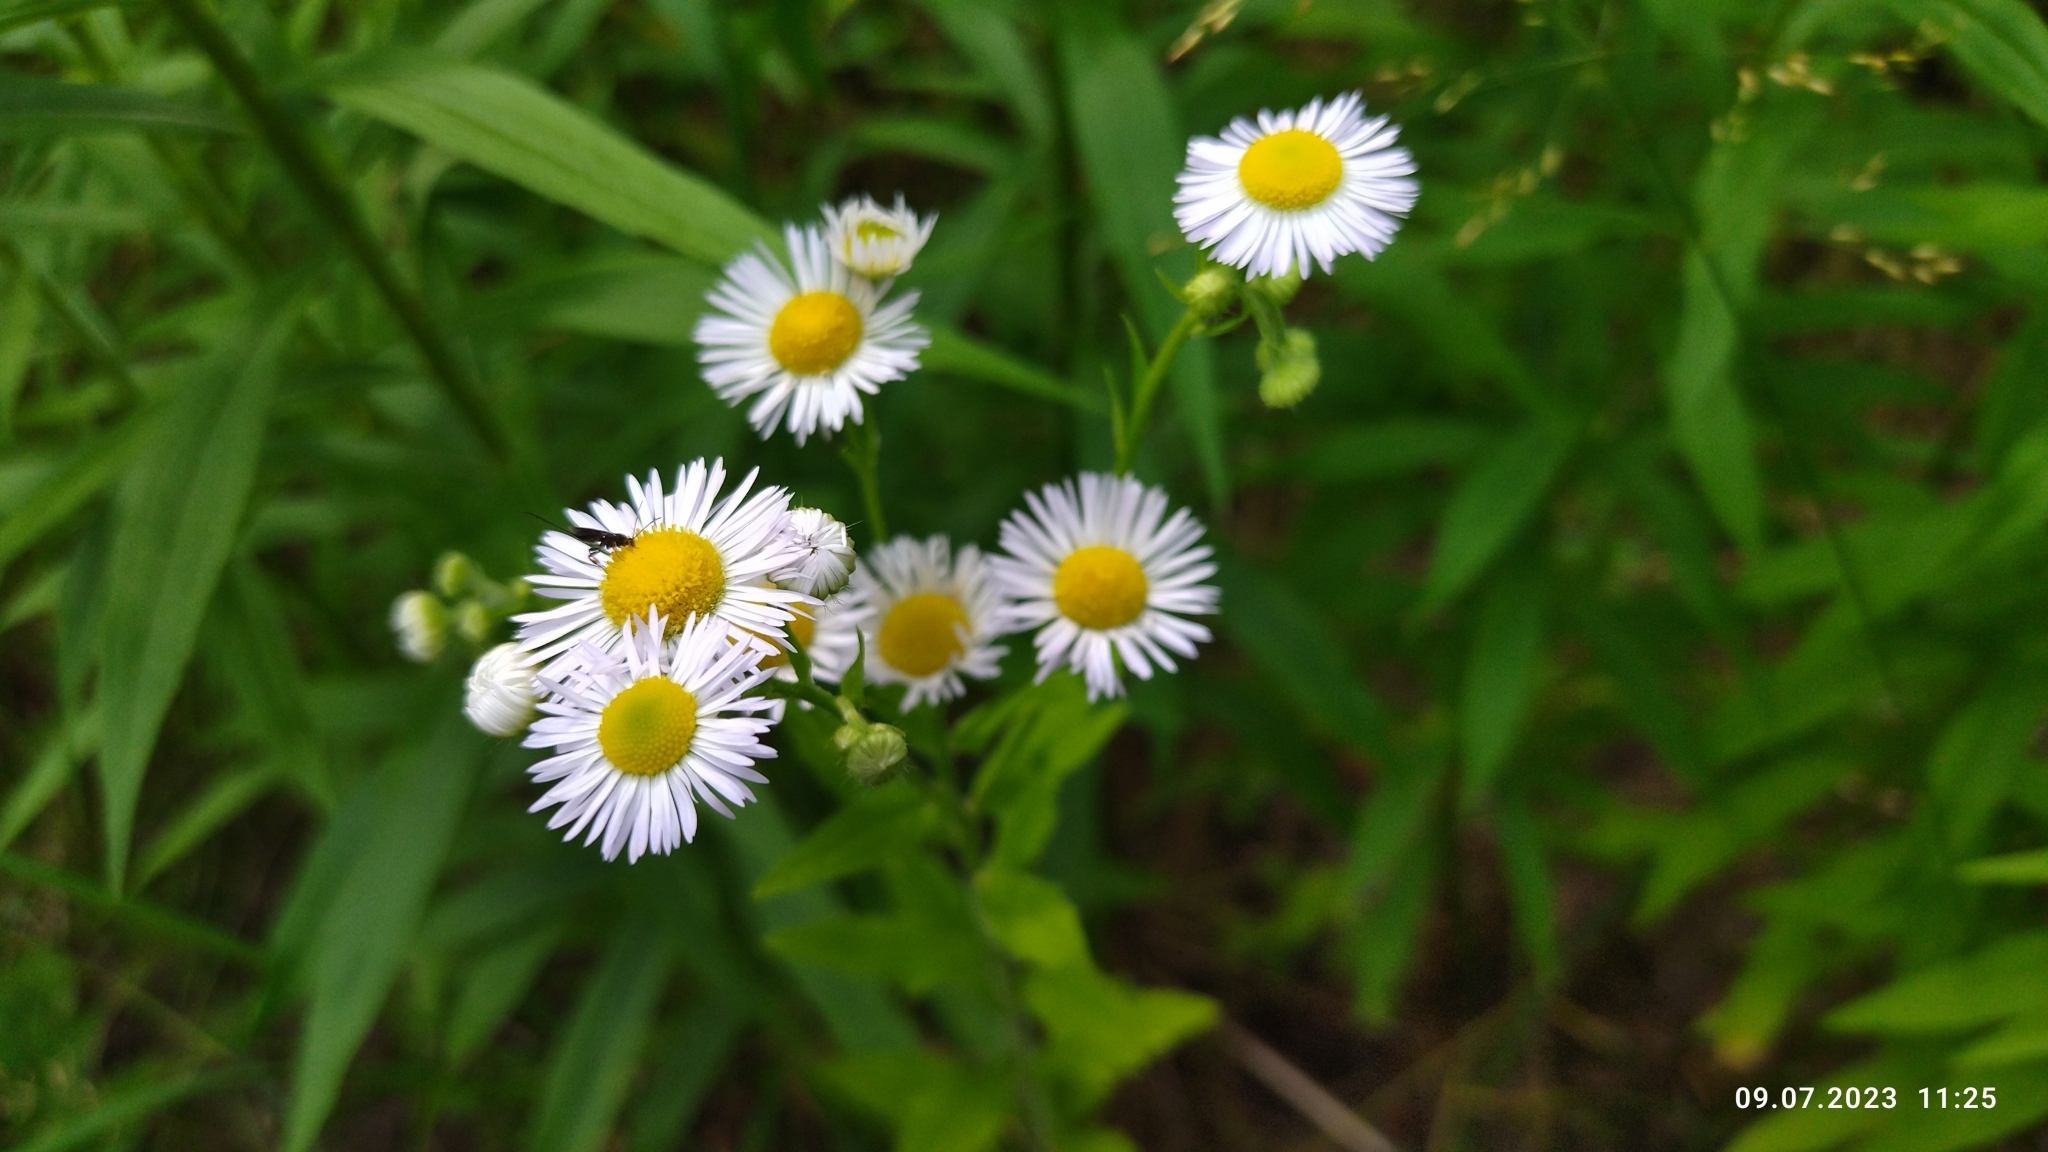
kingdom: Plantae
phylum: Tracheophyta
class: Magnoliopsida
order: Asterales
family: Asteraceae
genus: Erigeron
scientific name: Erigeron annuus
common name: Tall fleabane
